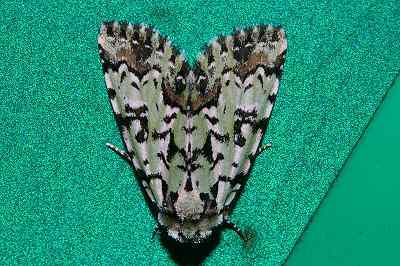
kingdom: Animalia
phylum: Arthropoda
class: Insecta
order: Lepidoptera
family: Noctuidae
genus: Moma
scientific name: Moma alpium
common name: Scarce merveille du jour
